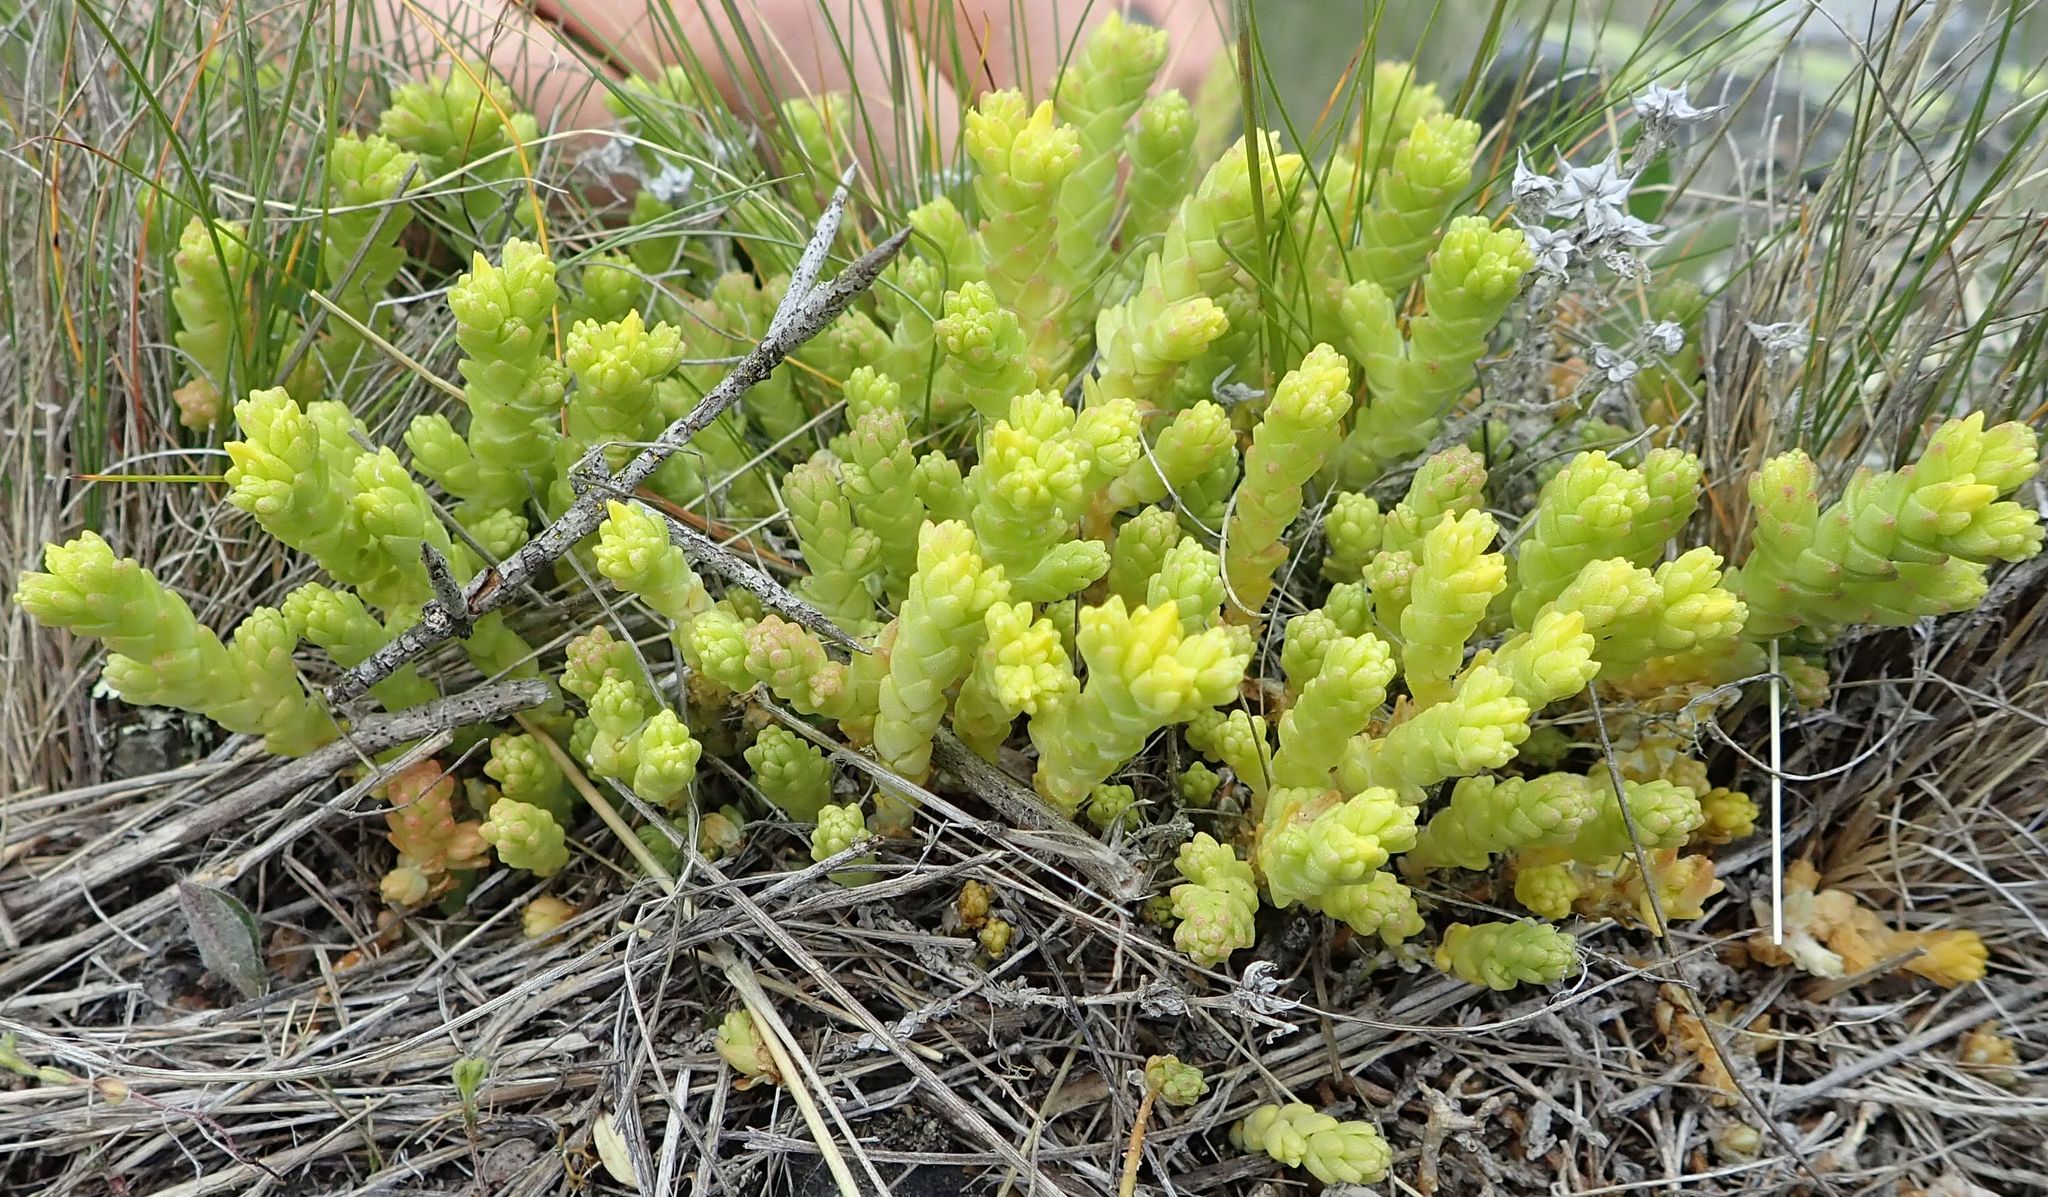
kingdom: Plantae
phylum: Tracheophyta
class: Magnoliopsida
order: Saxifragales
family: Crassulaceae
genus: Sedum
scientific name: Sedum acre
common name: Biting stonecrop
